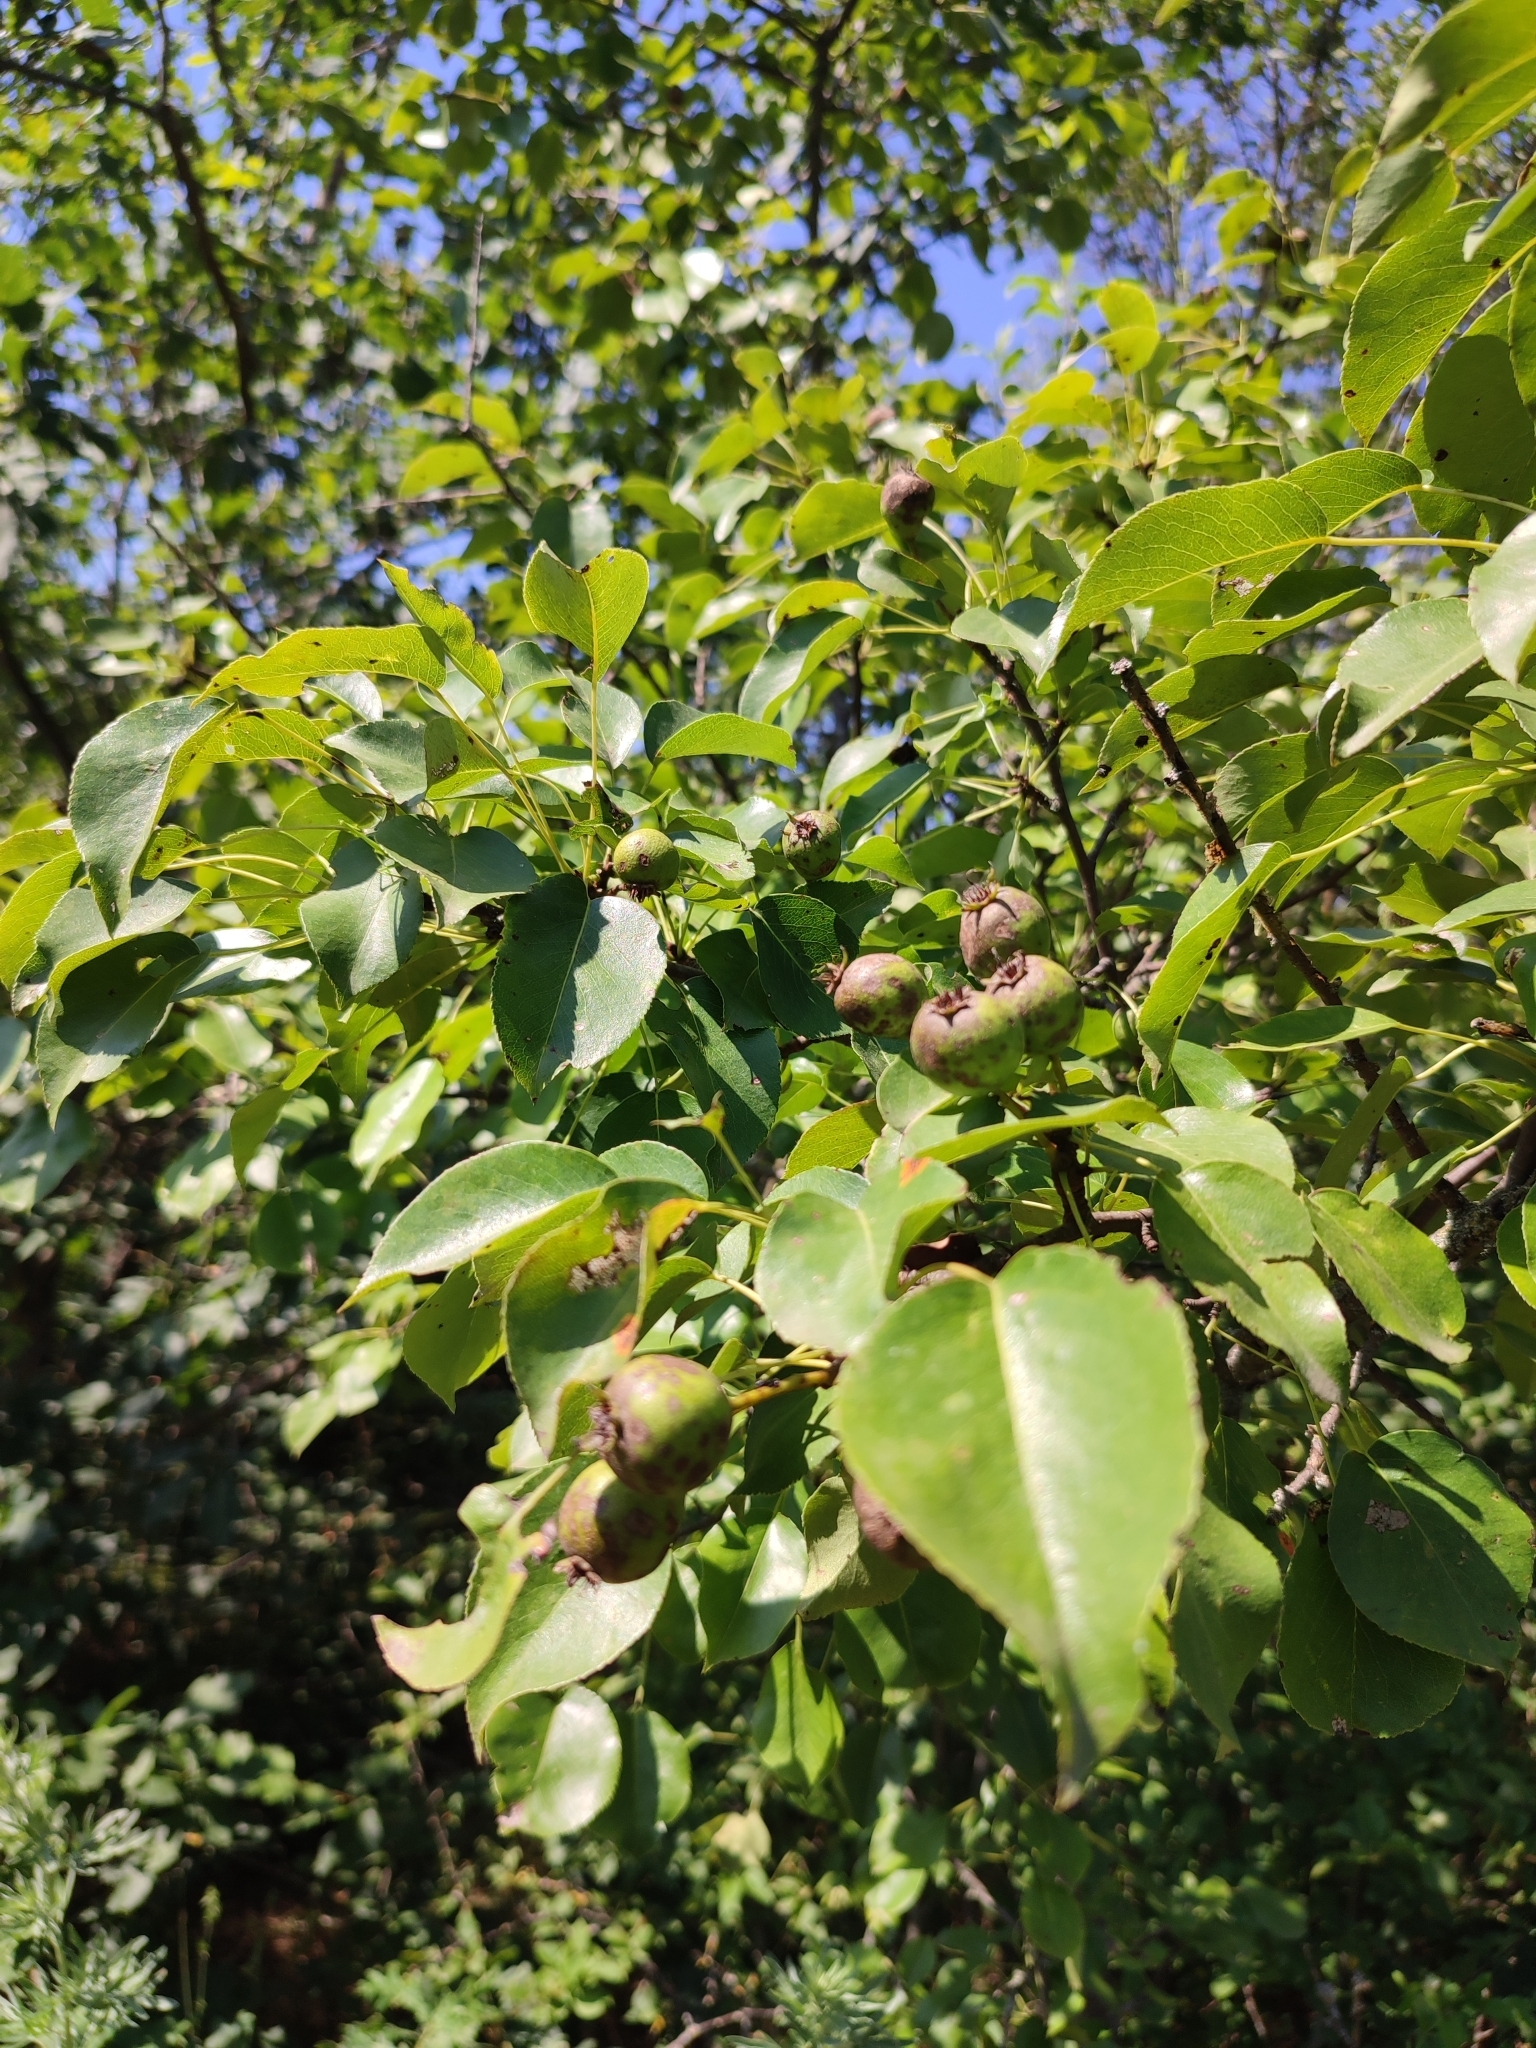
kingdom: Plantae
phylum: Tracheophyta
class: Magnoliopsida
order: Rosales
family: Rosaceae
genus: Pyrus
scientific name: Pyrus communis
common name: Pear
